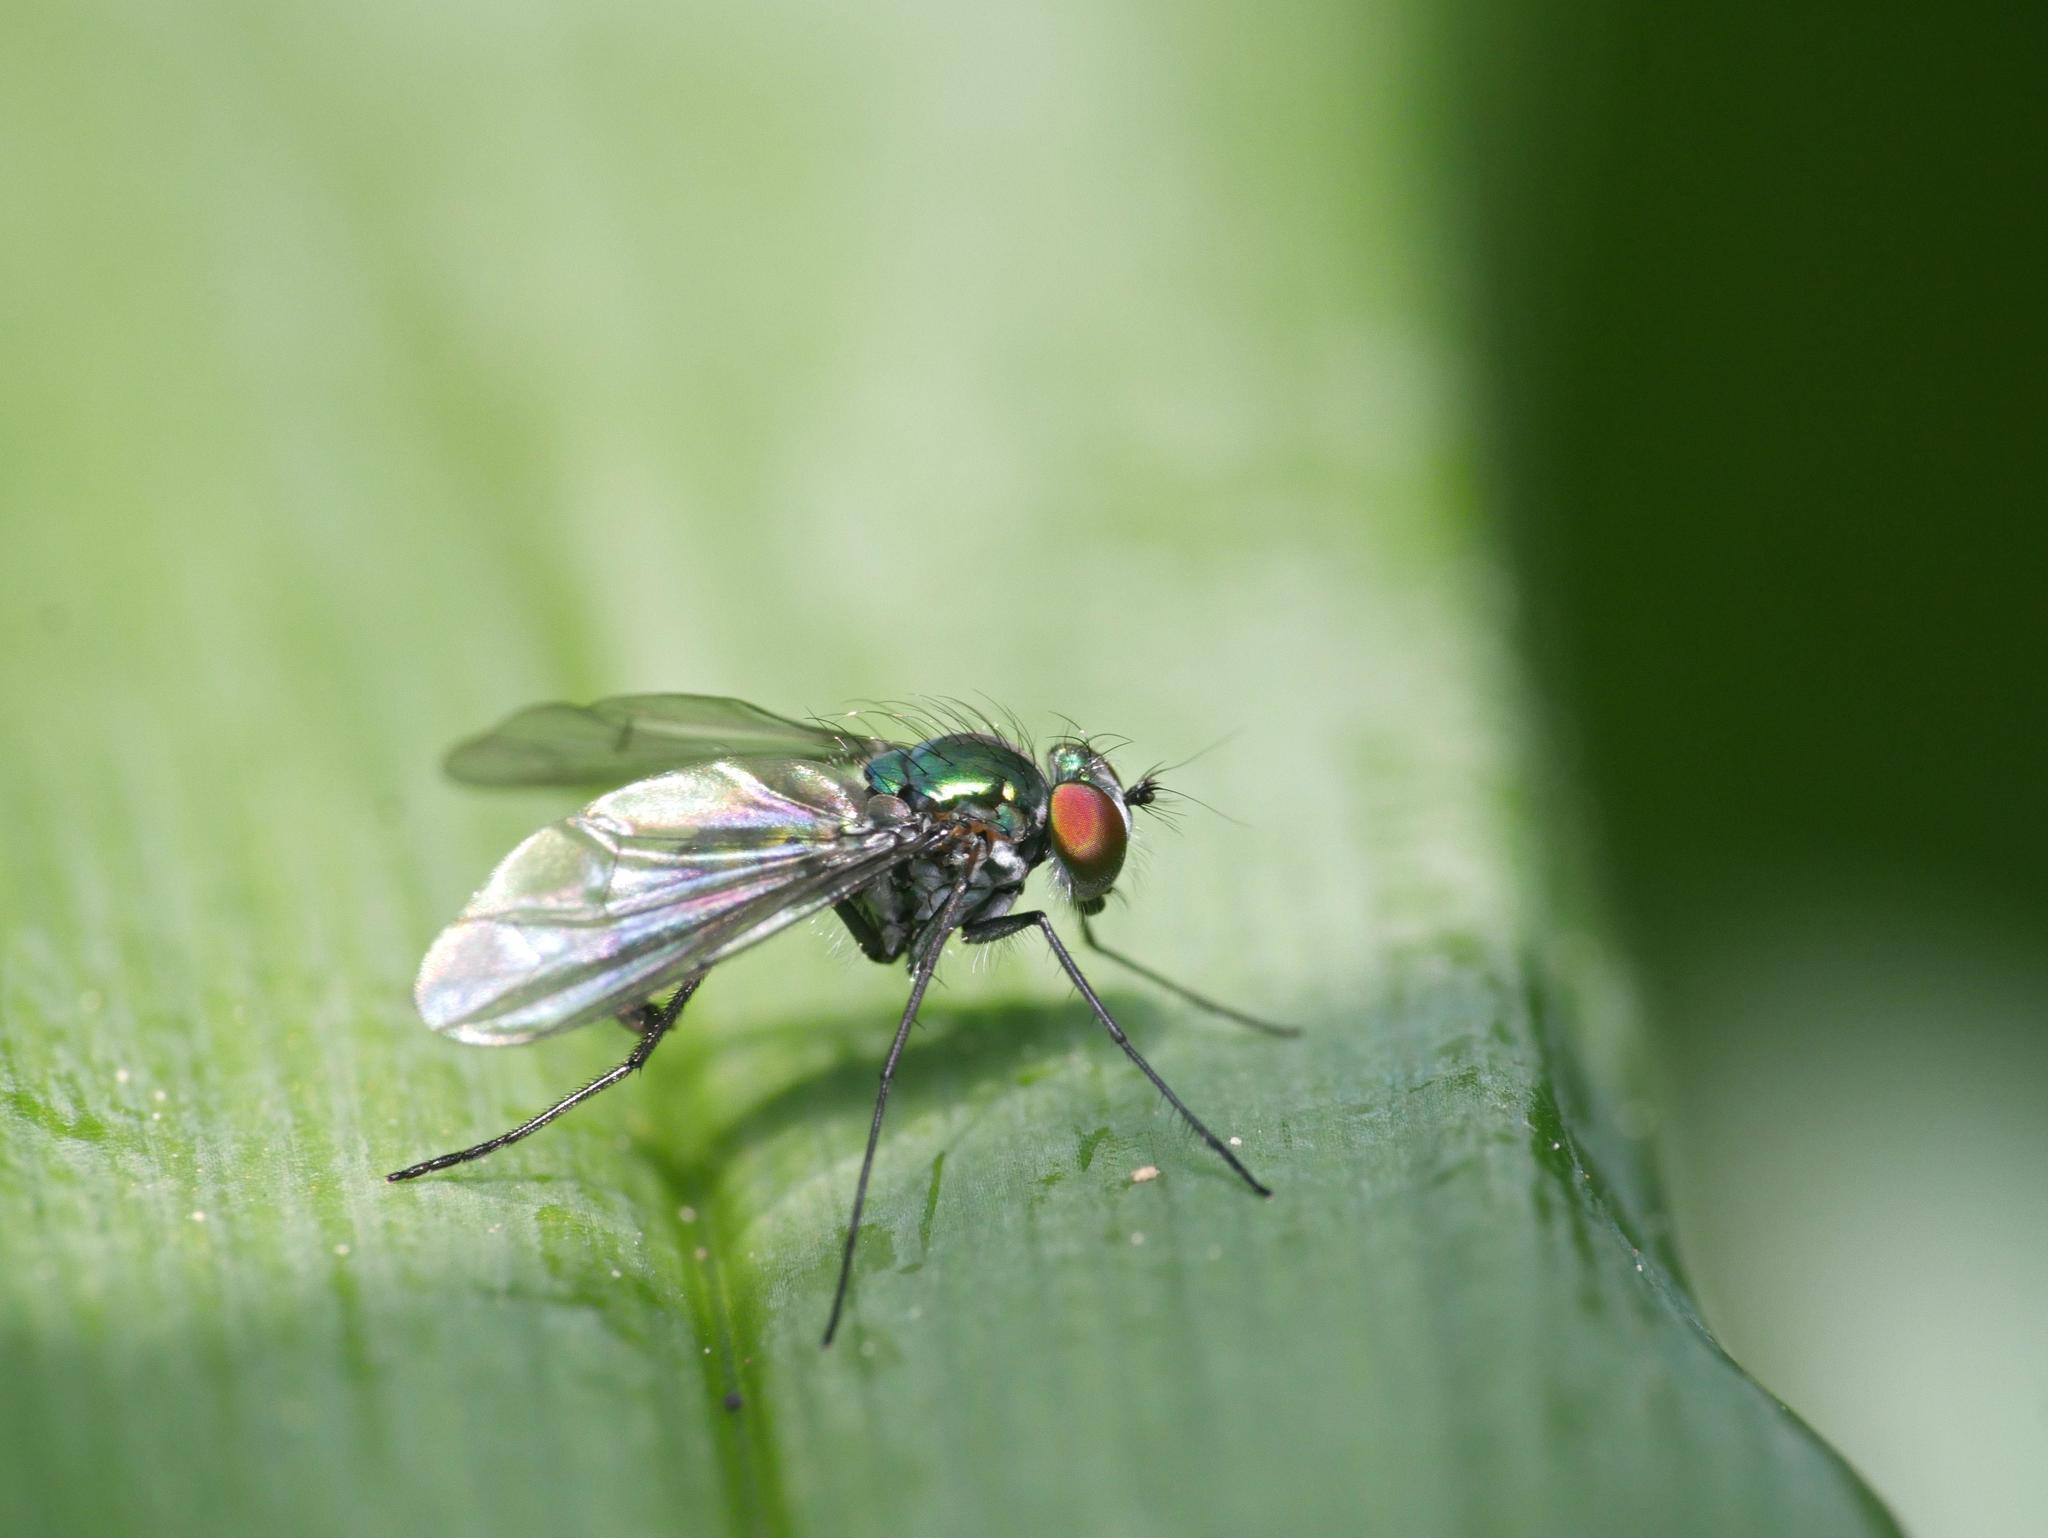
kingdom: Animalia
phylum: Arthropoda
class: Insecta
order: Diptera
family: Dolichopodidae
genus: Condylostylus
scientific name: Condylostylus patibulatus
